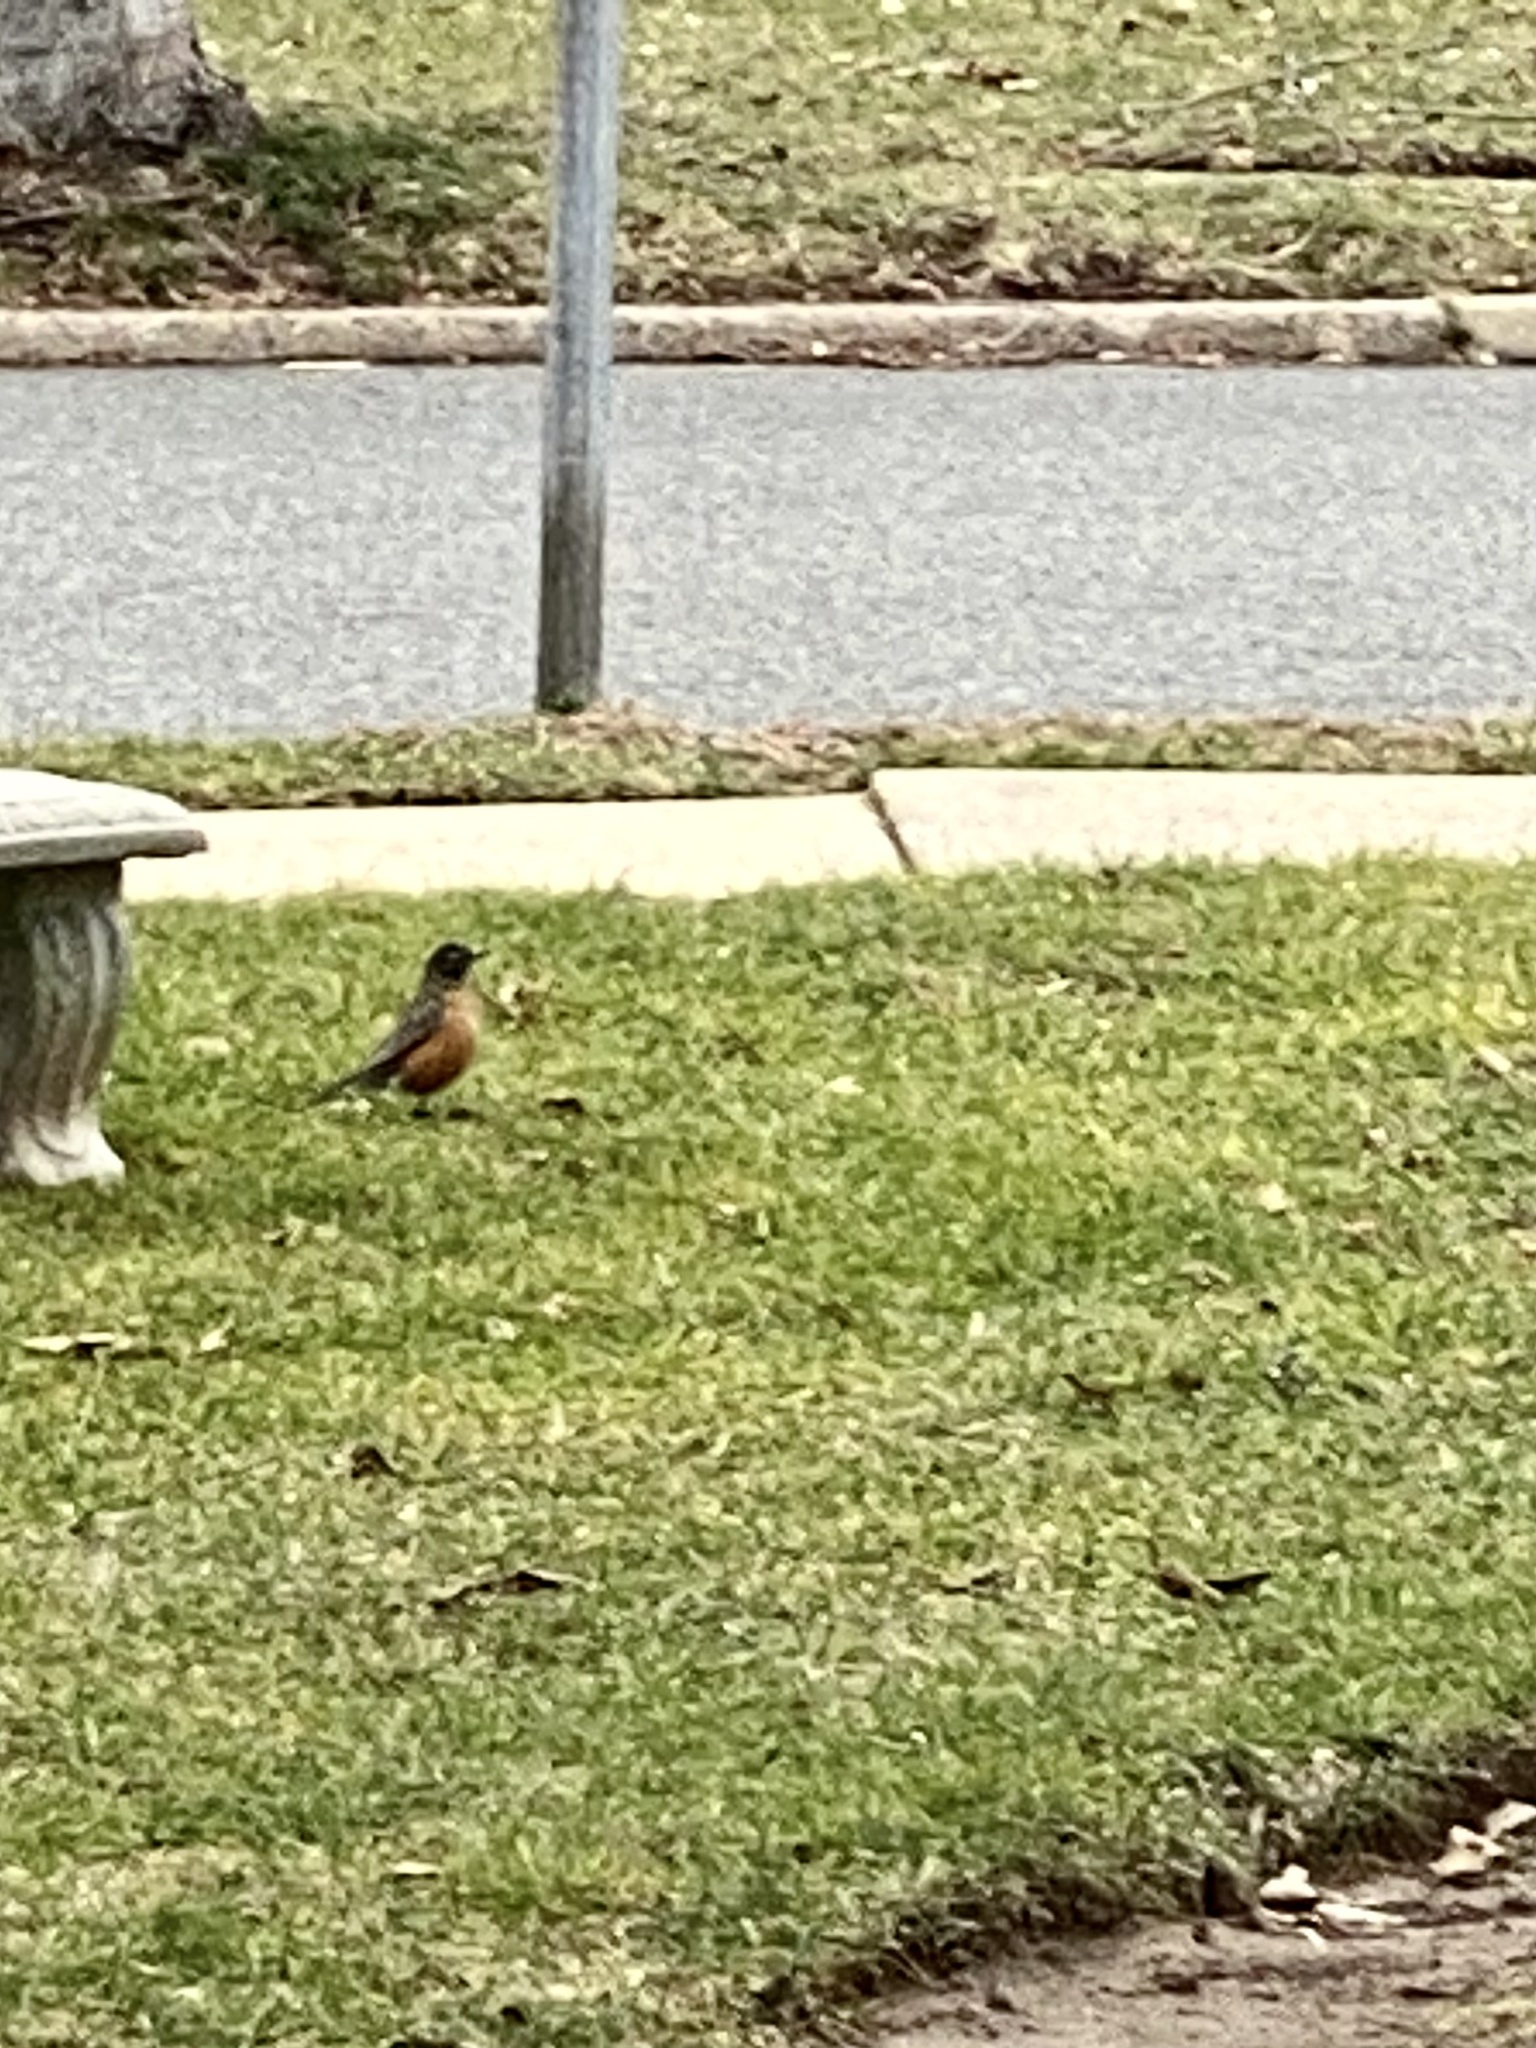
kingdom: Animalia
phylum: Chordata
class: Aves
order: Passeriformes
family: Turdidae
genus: Turdus
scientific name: Turdus migratorius
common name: American robin
